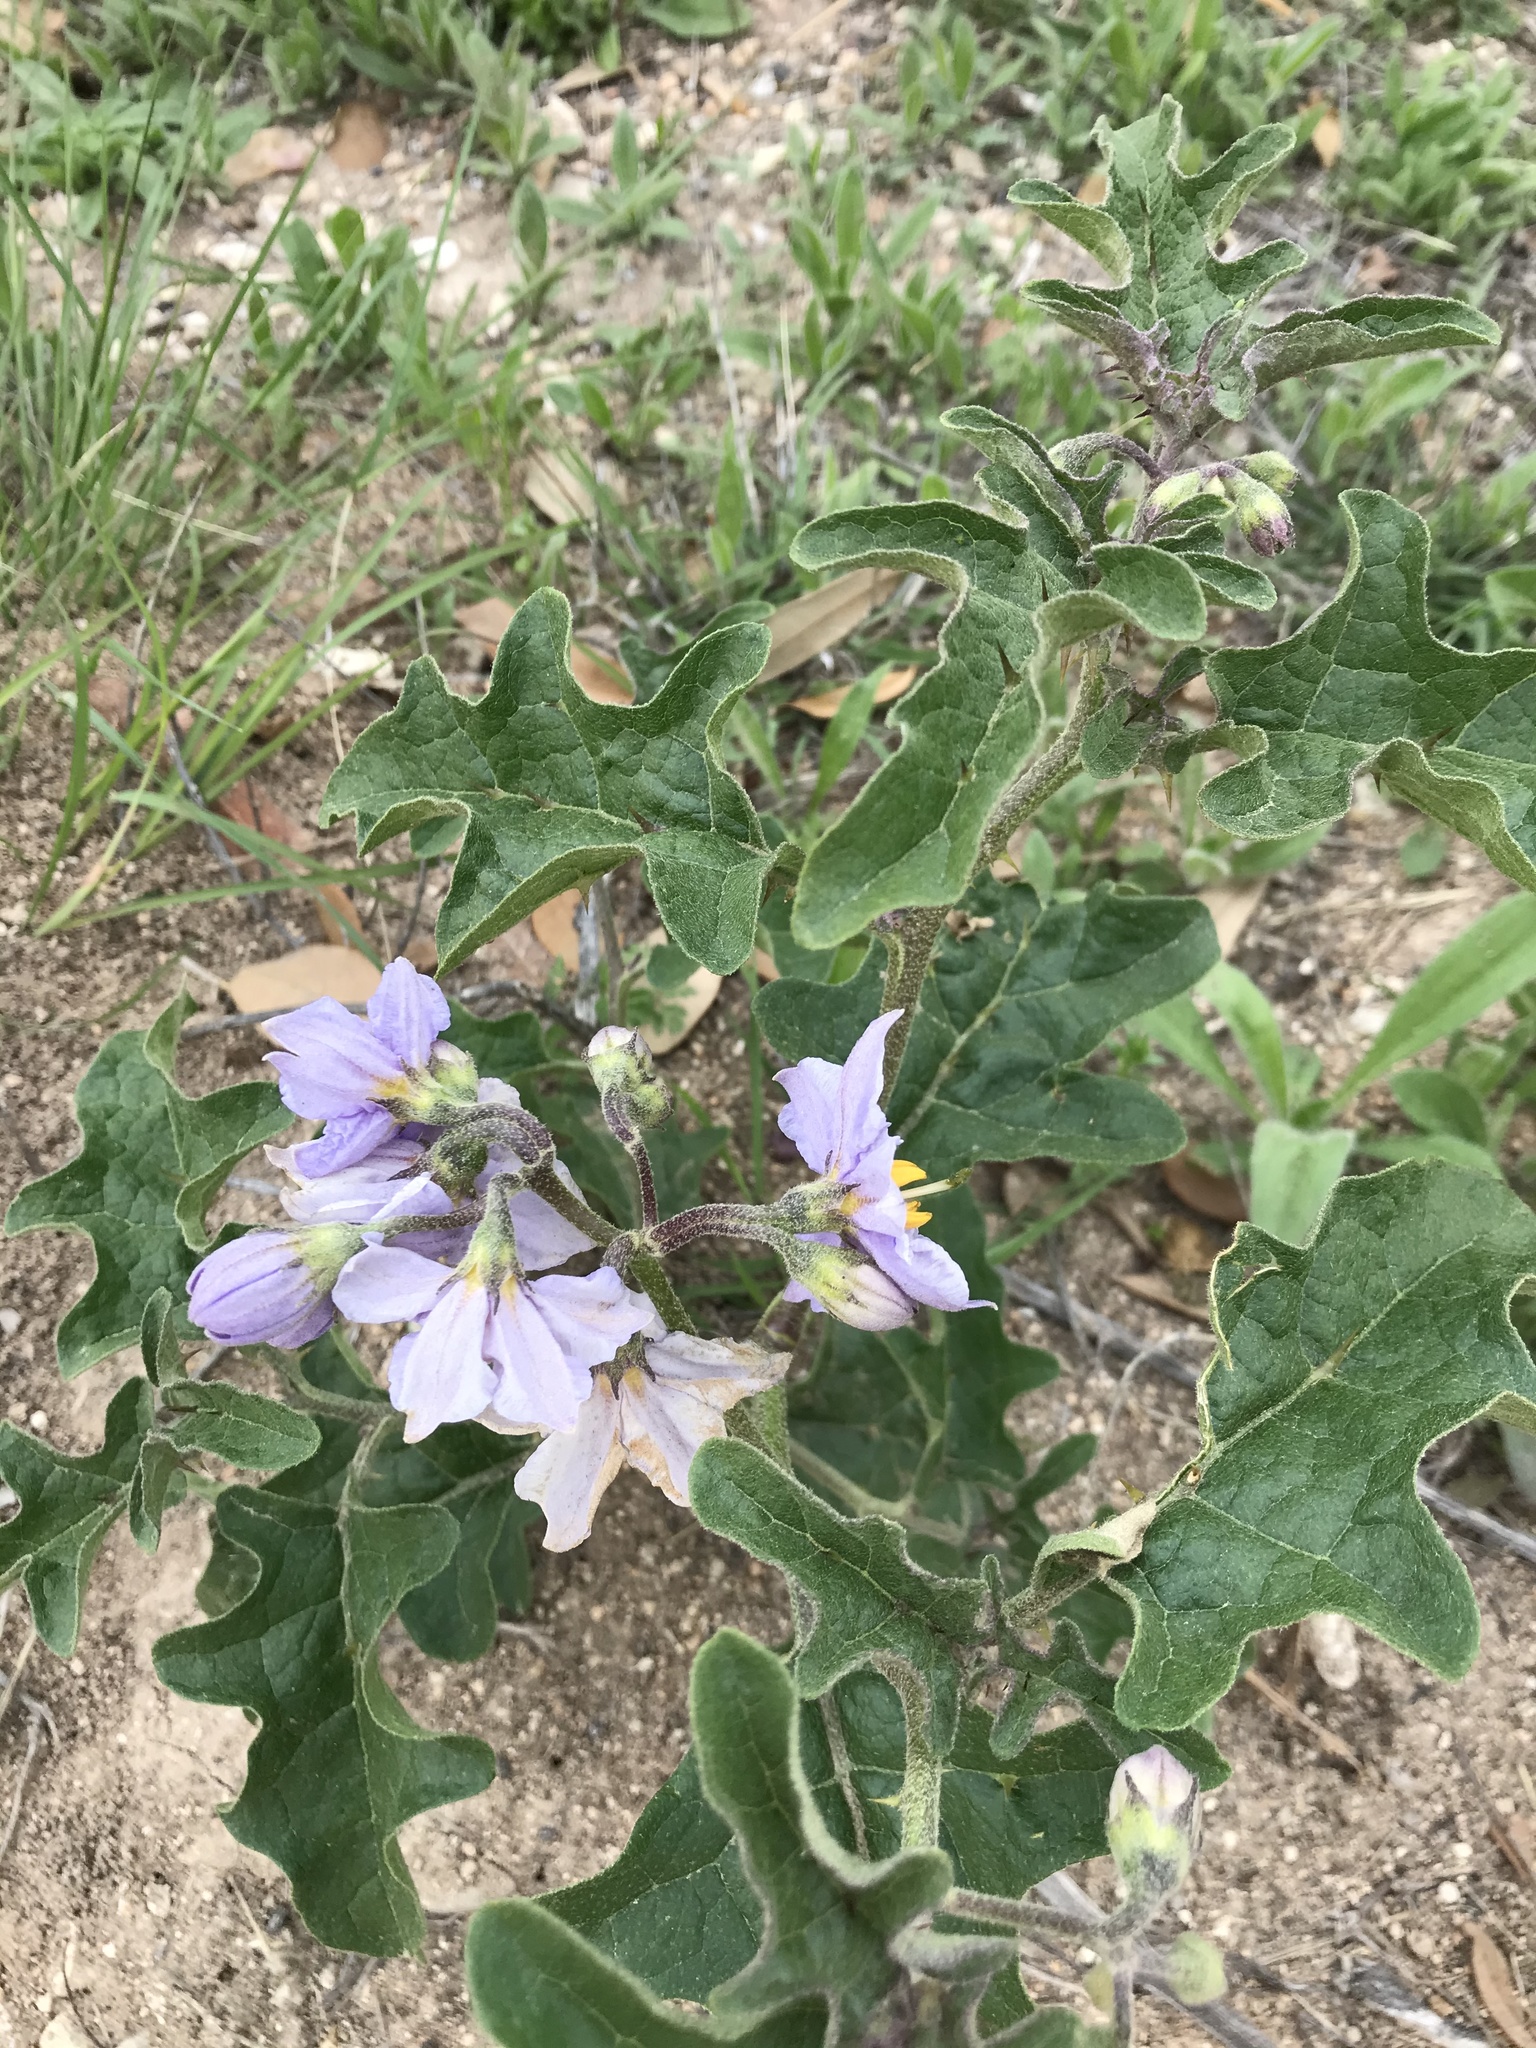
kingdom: Plantae
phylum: Tracheophyta
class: Magnoliopsida
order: Solanales
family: Solanaceae
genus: Solanum
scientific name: Solanum dimidiatum
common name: Carolina horse-nettle
